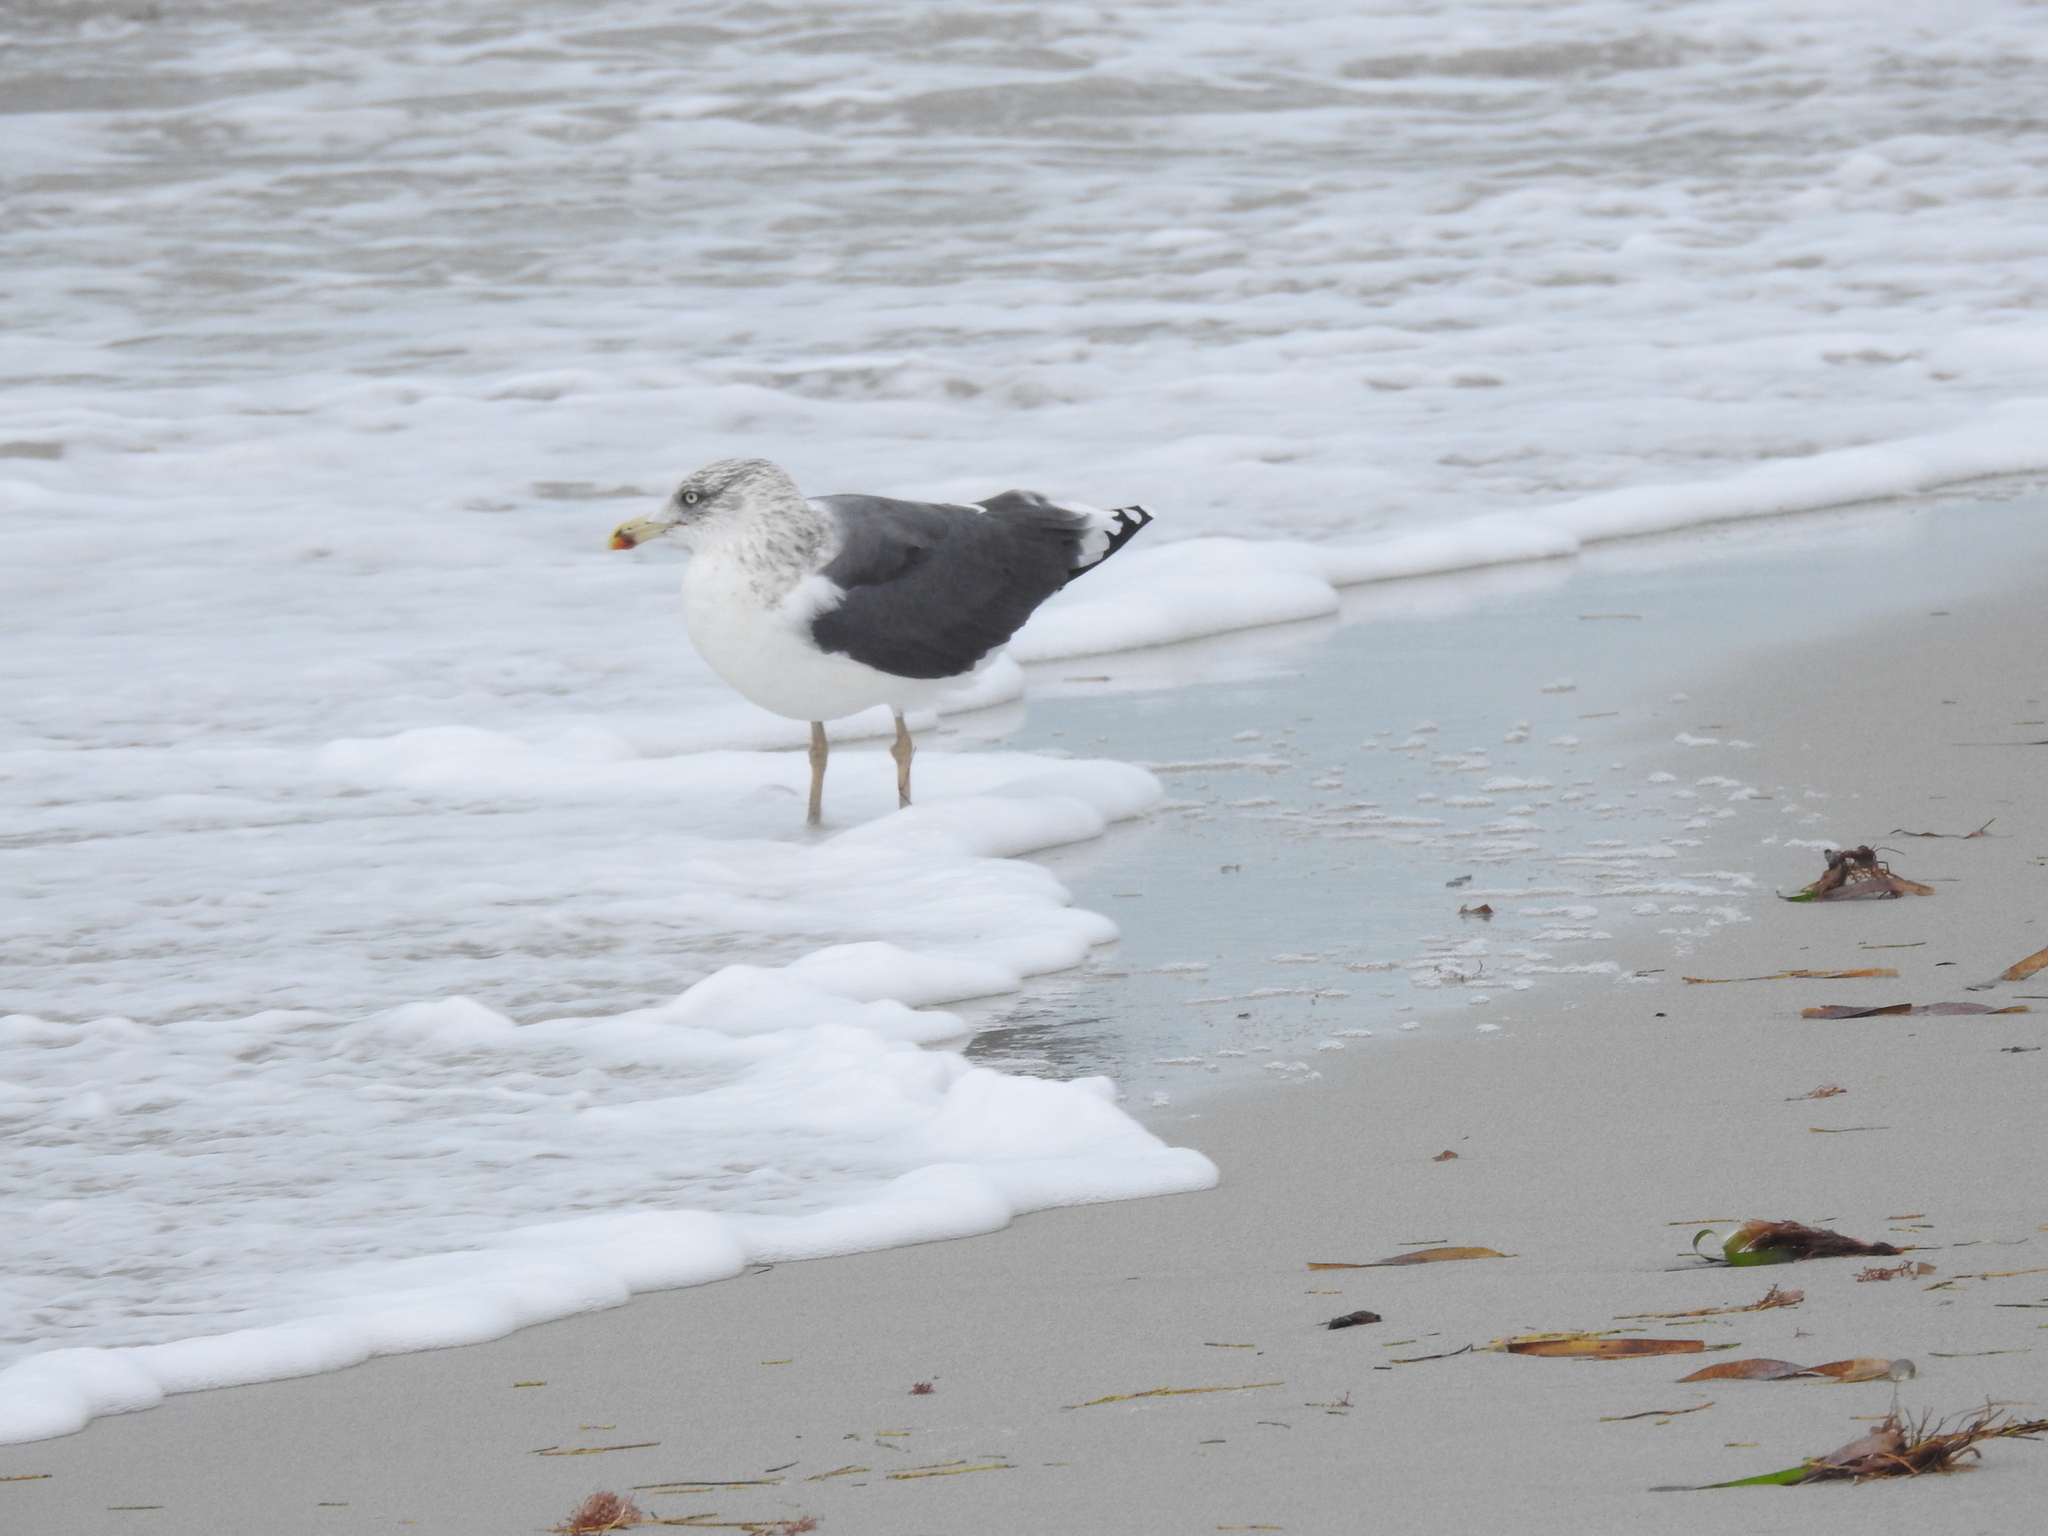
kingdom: Animalia
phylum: Chordata
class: Aves
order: Charadriiformes
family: Laridae
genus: Larus
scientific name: Larus fuscus
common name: Lesser black-backed gull
